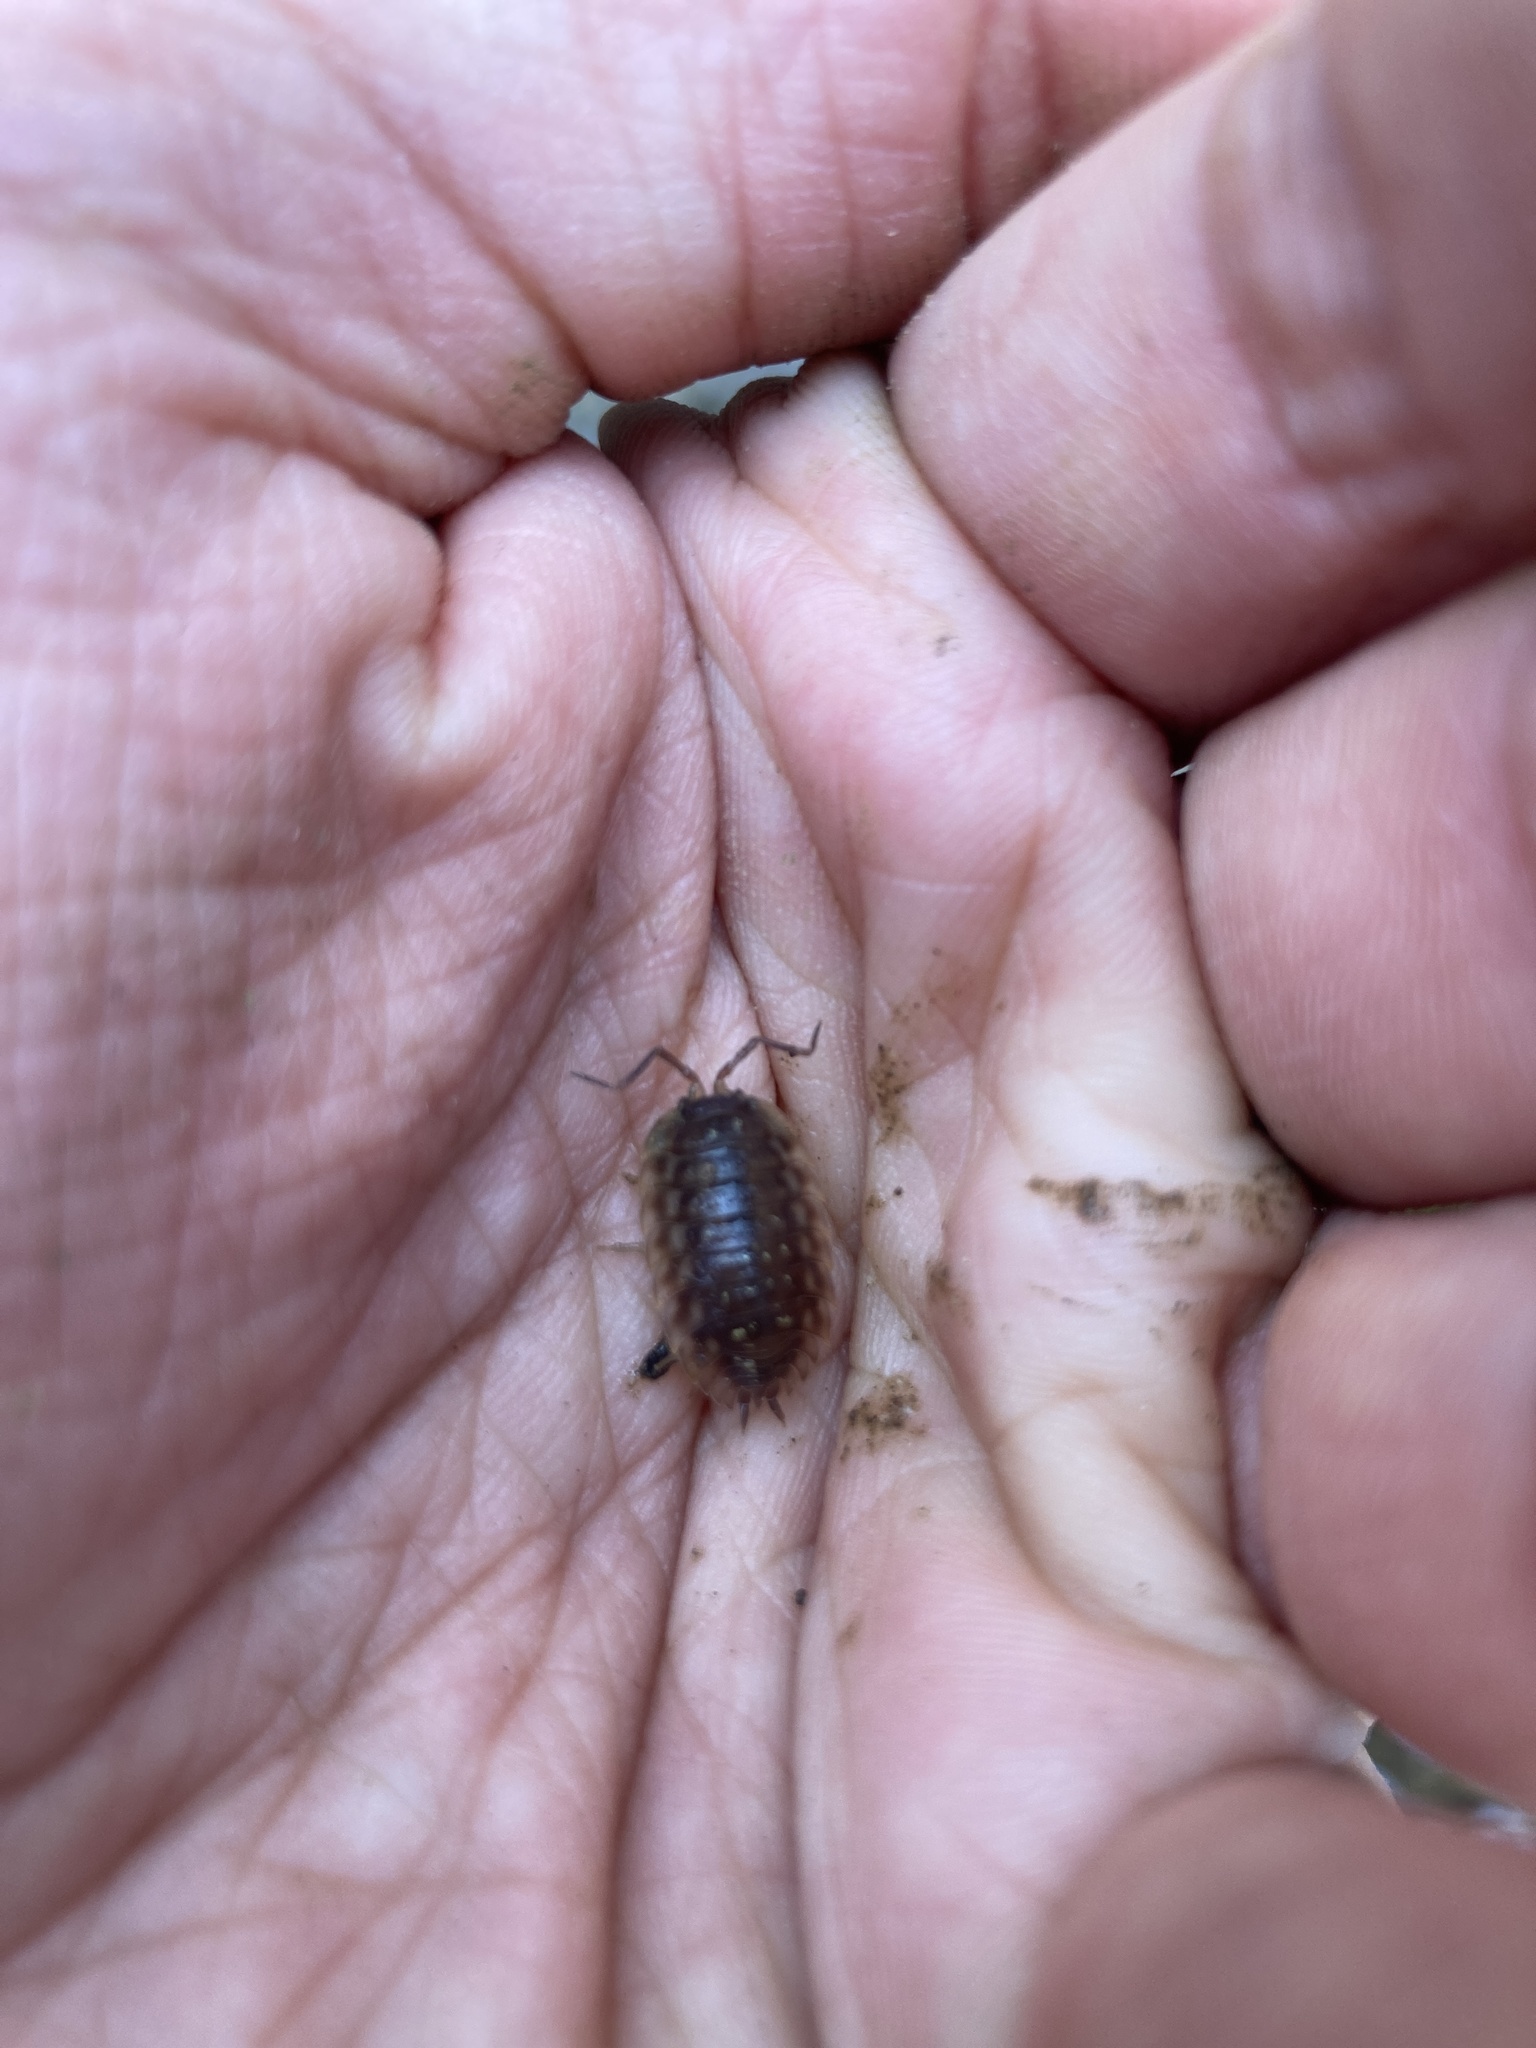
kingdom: Animalia
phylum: Arthropoda
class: Malacostraca
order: Isopoda
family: Oniscidae
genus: Oniscus
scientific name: Oniscus asellus
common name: Common shiny woodlouse
